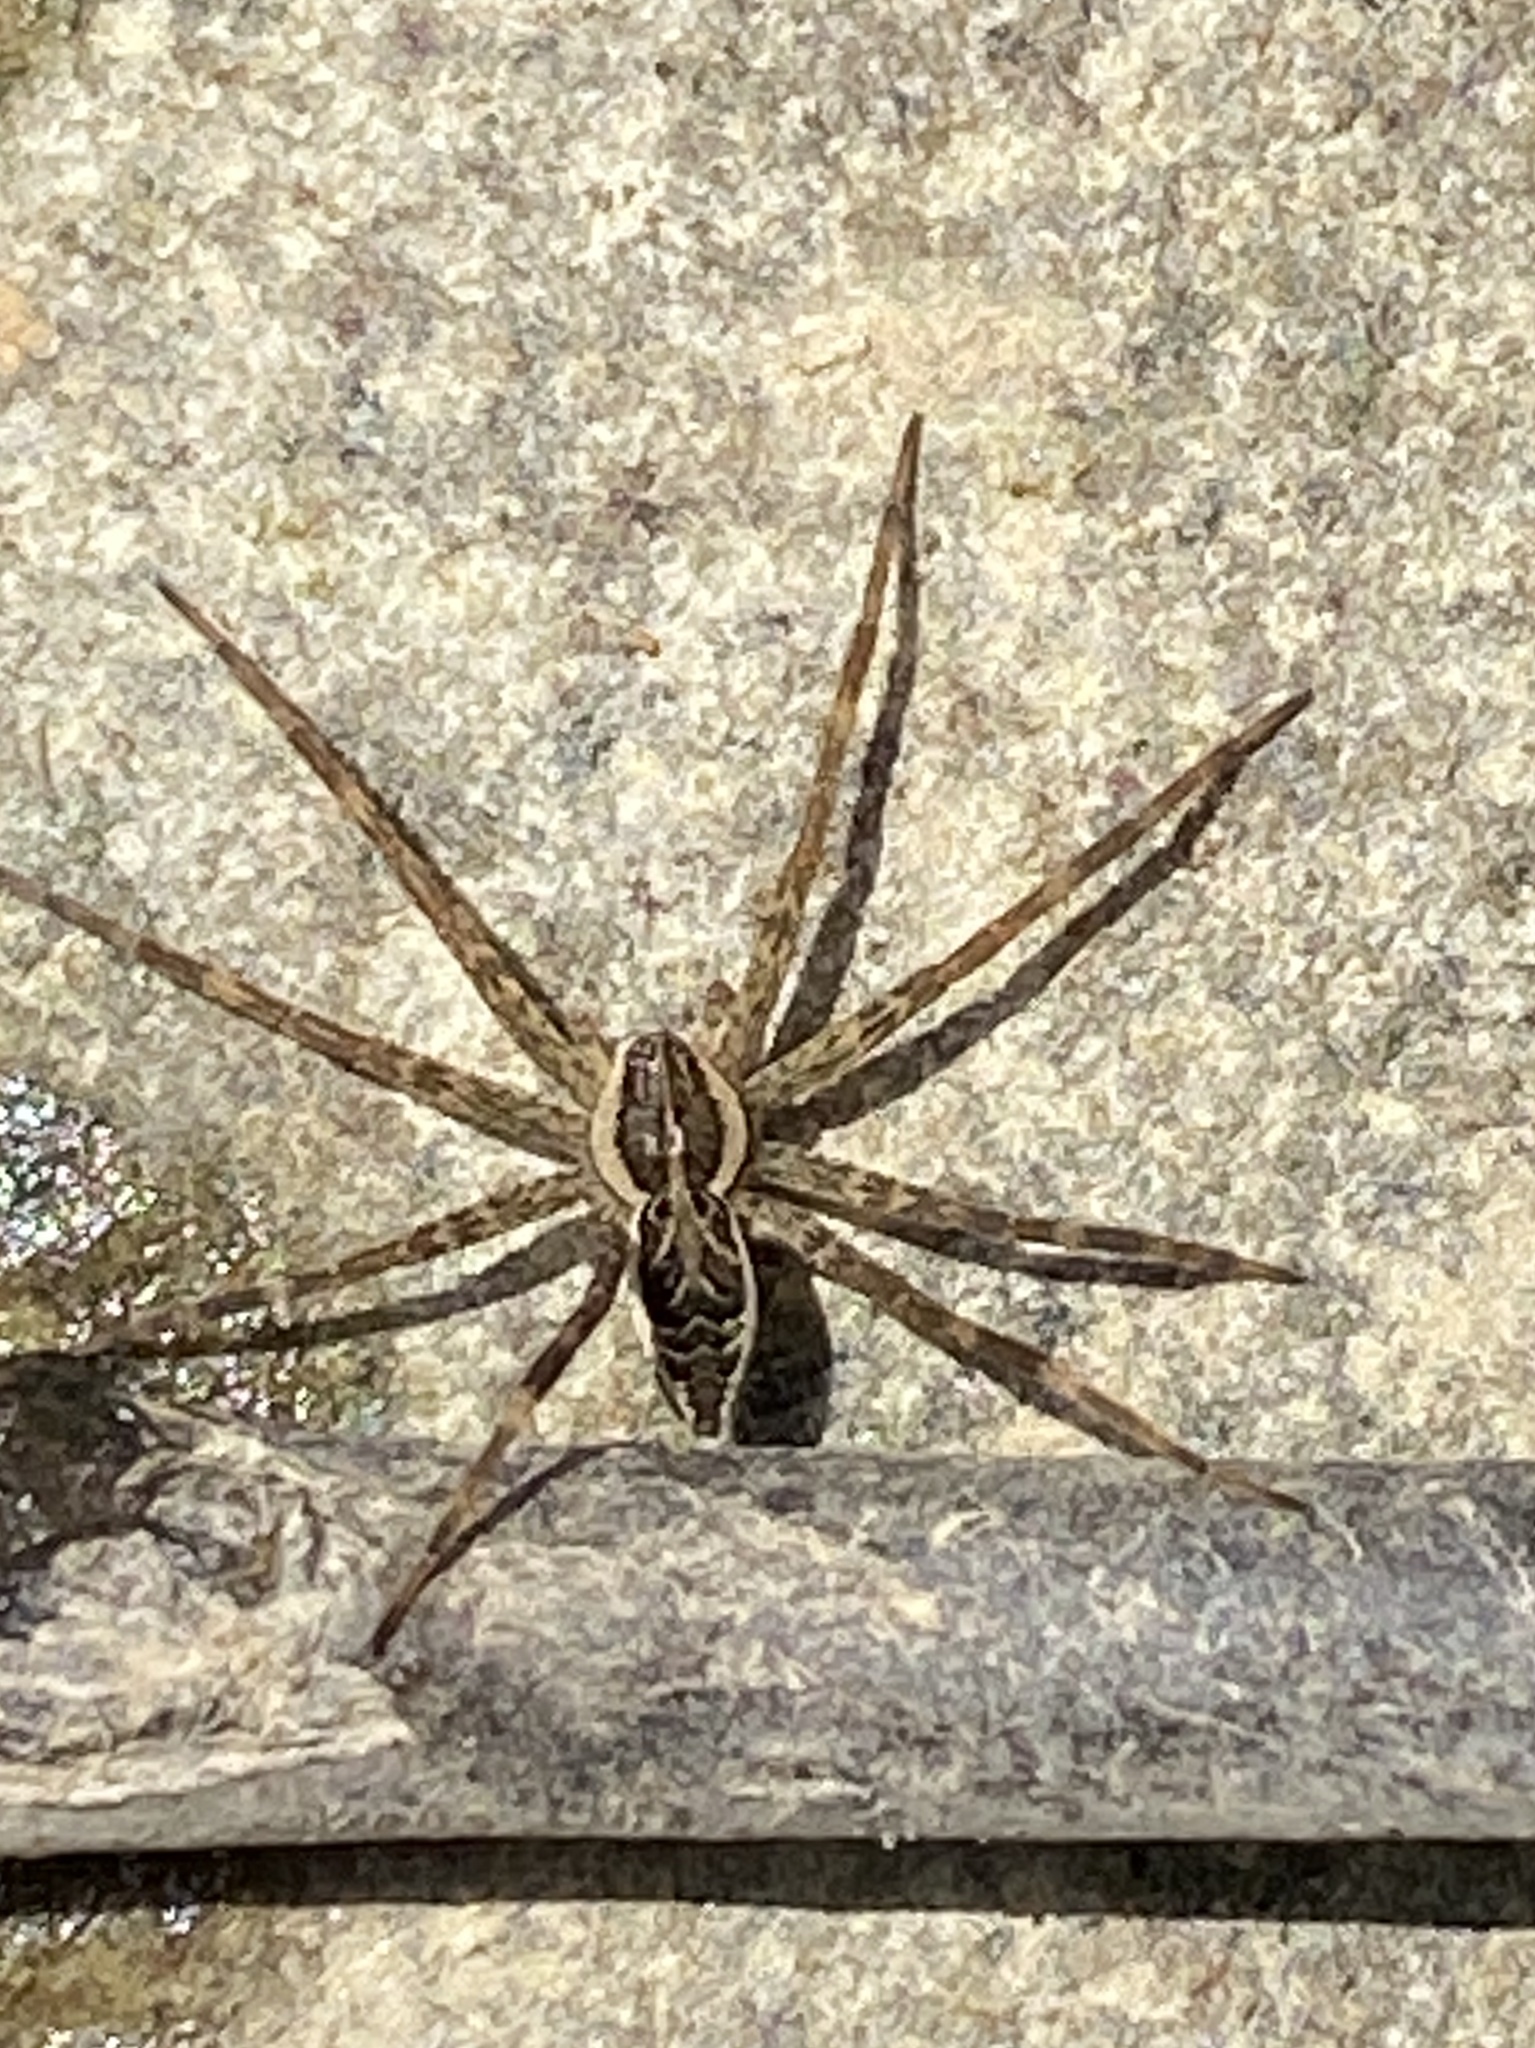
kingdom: Animalia
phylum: Arthropoda
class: Arachnida
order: Araneae
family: Pisauridae
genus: Dolomedes
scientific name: Dolomedes scriptus
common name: Striped fishing spider
